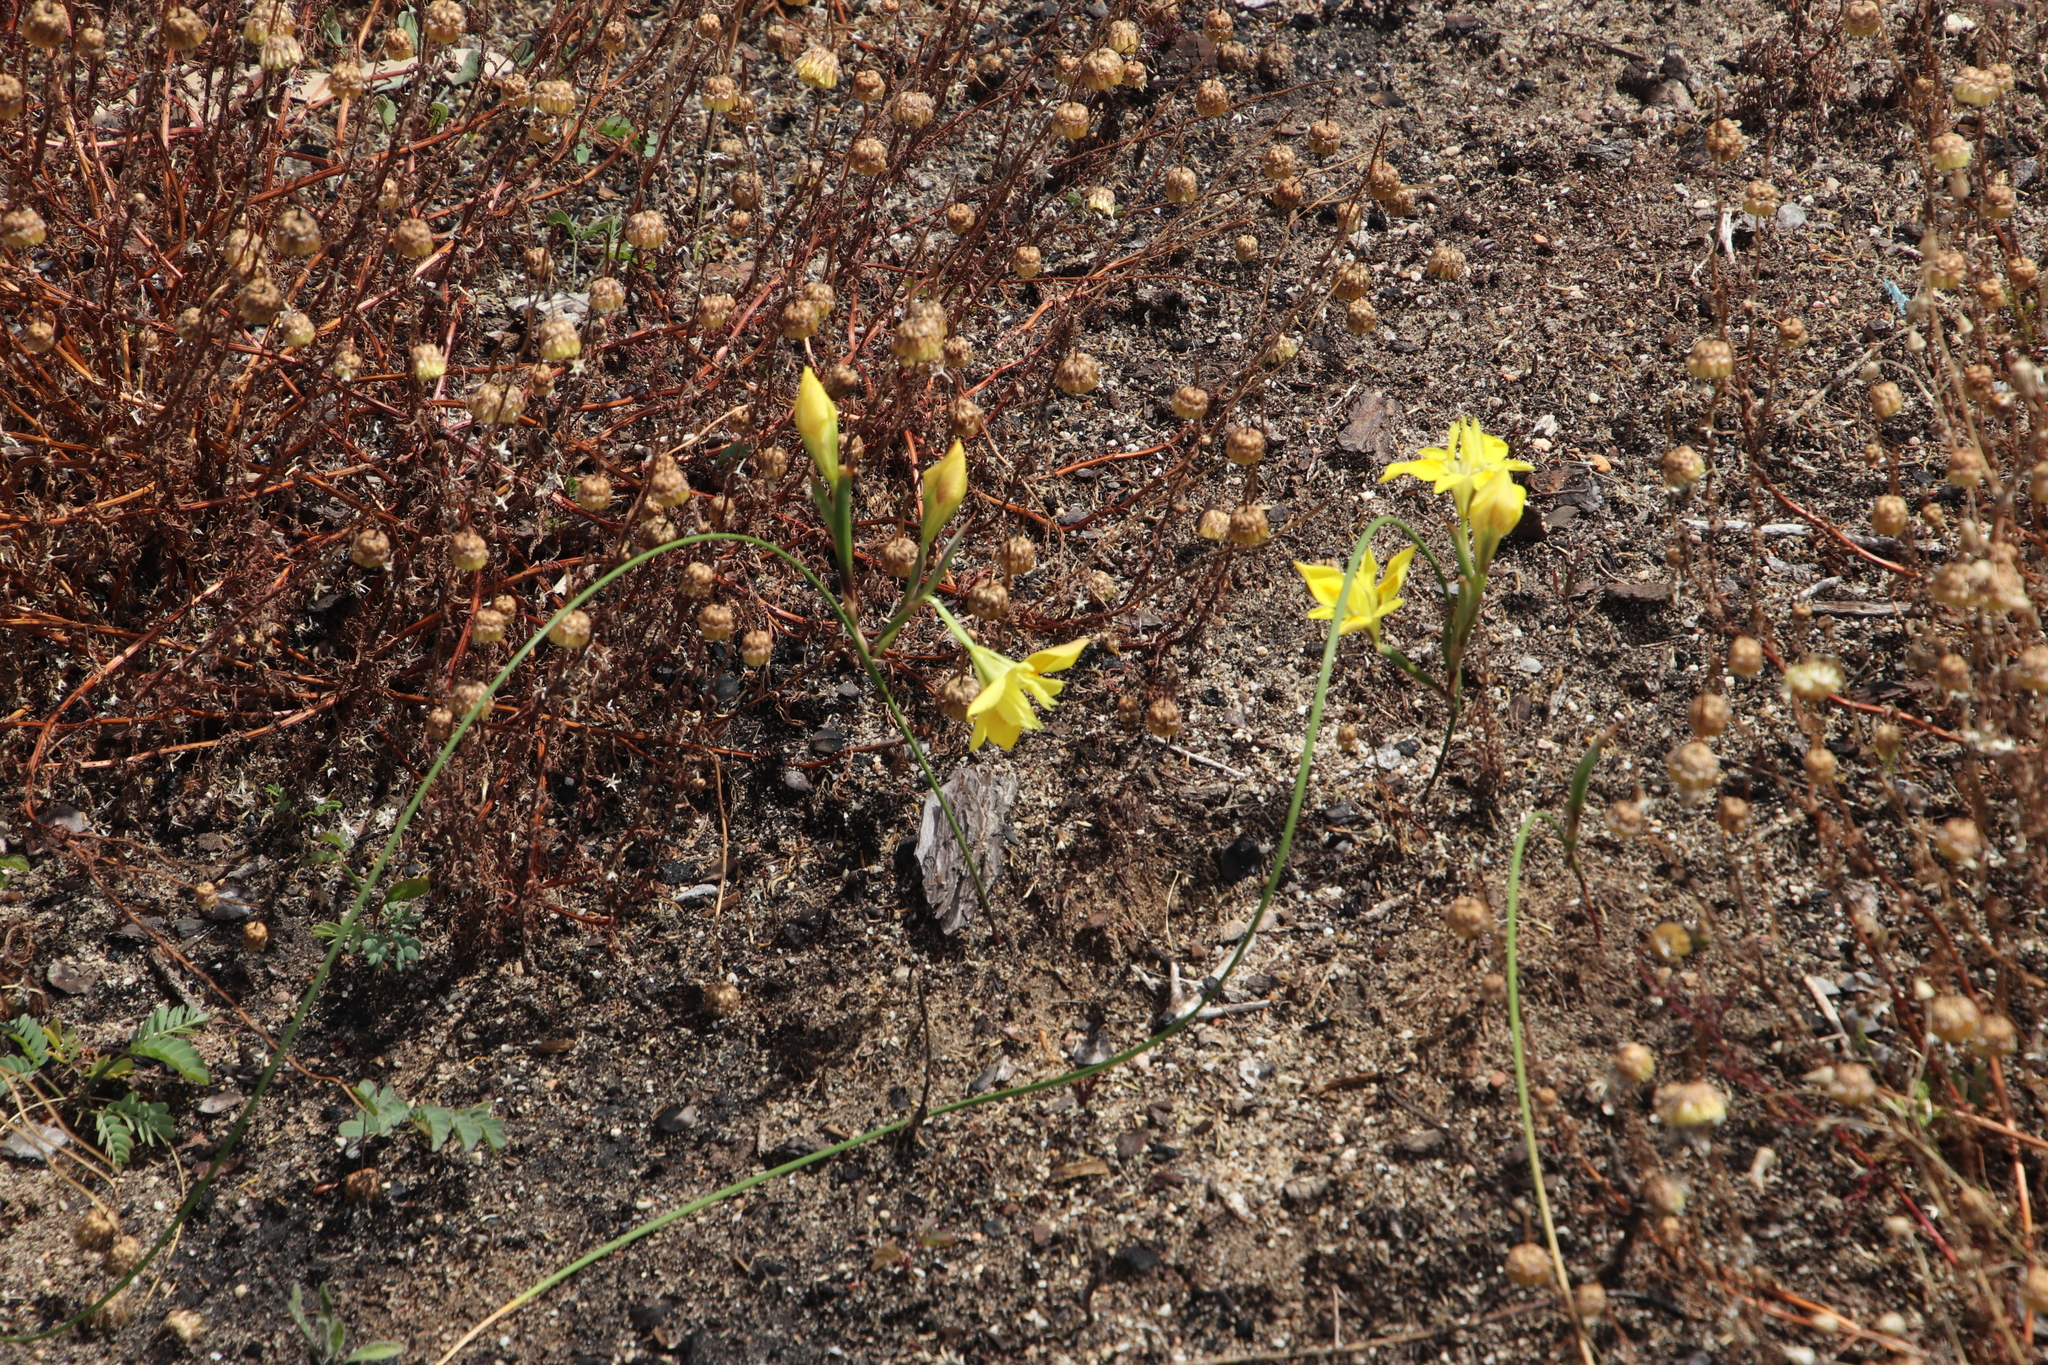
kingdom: Plantae
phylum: Tracheophyta
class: Liliopsida
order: Asparagales
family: Iridaceae
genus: Moraea
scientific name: Moraea fugax
